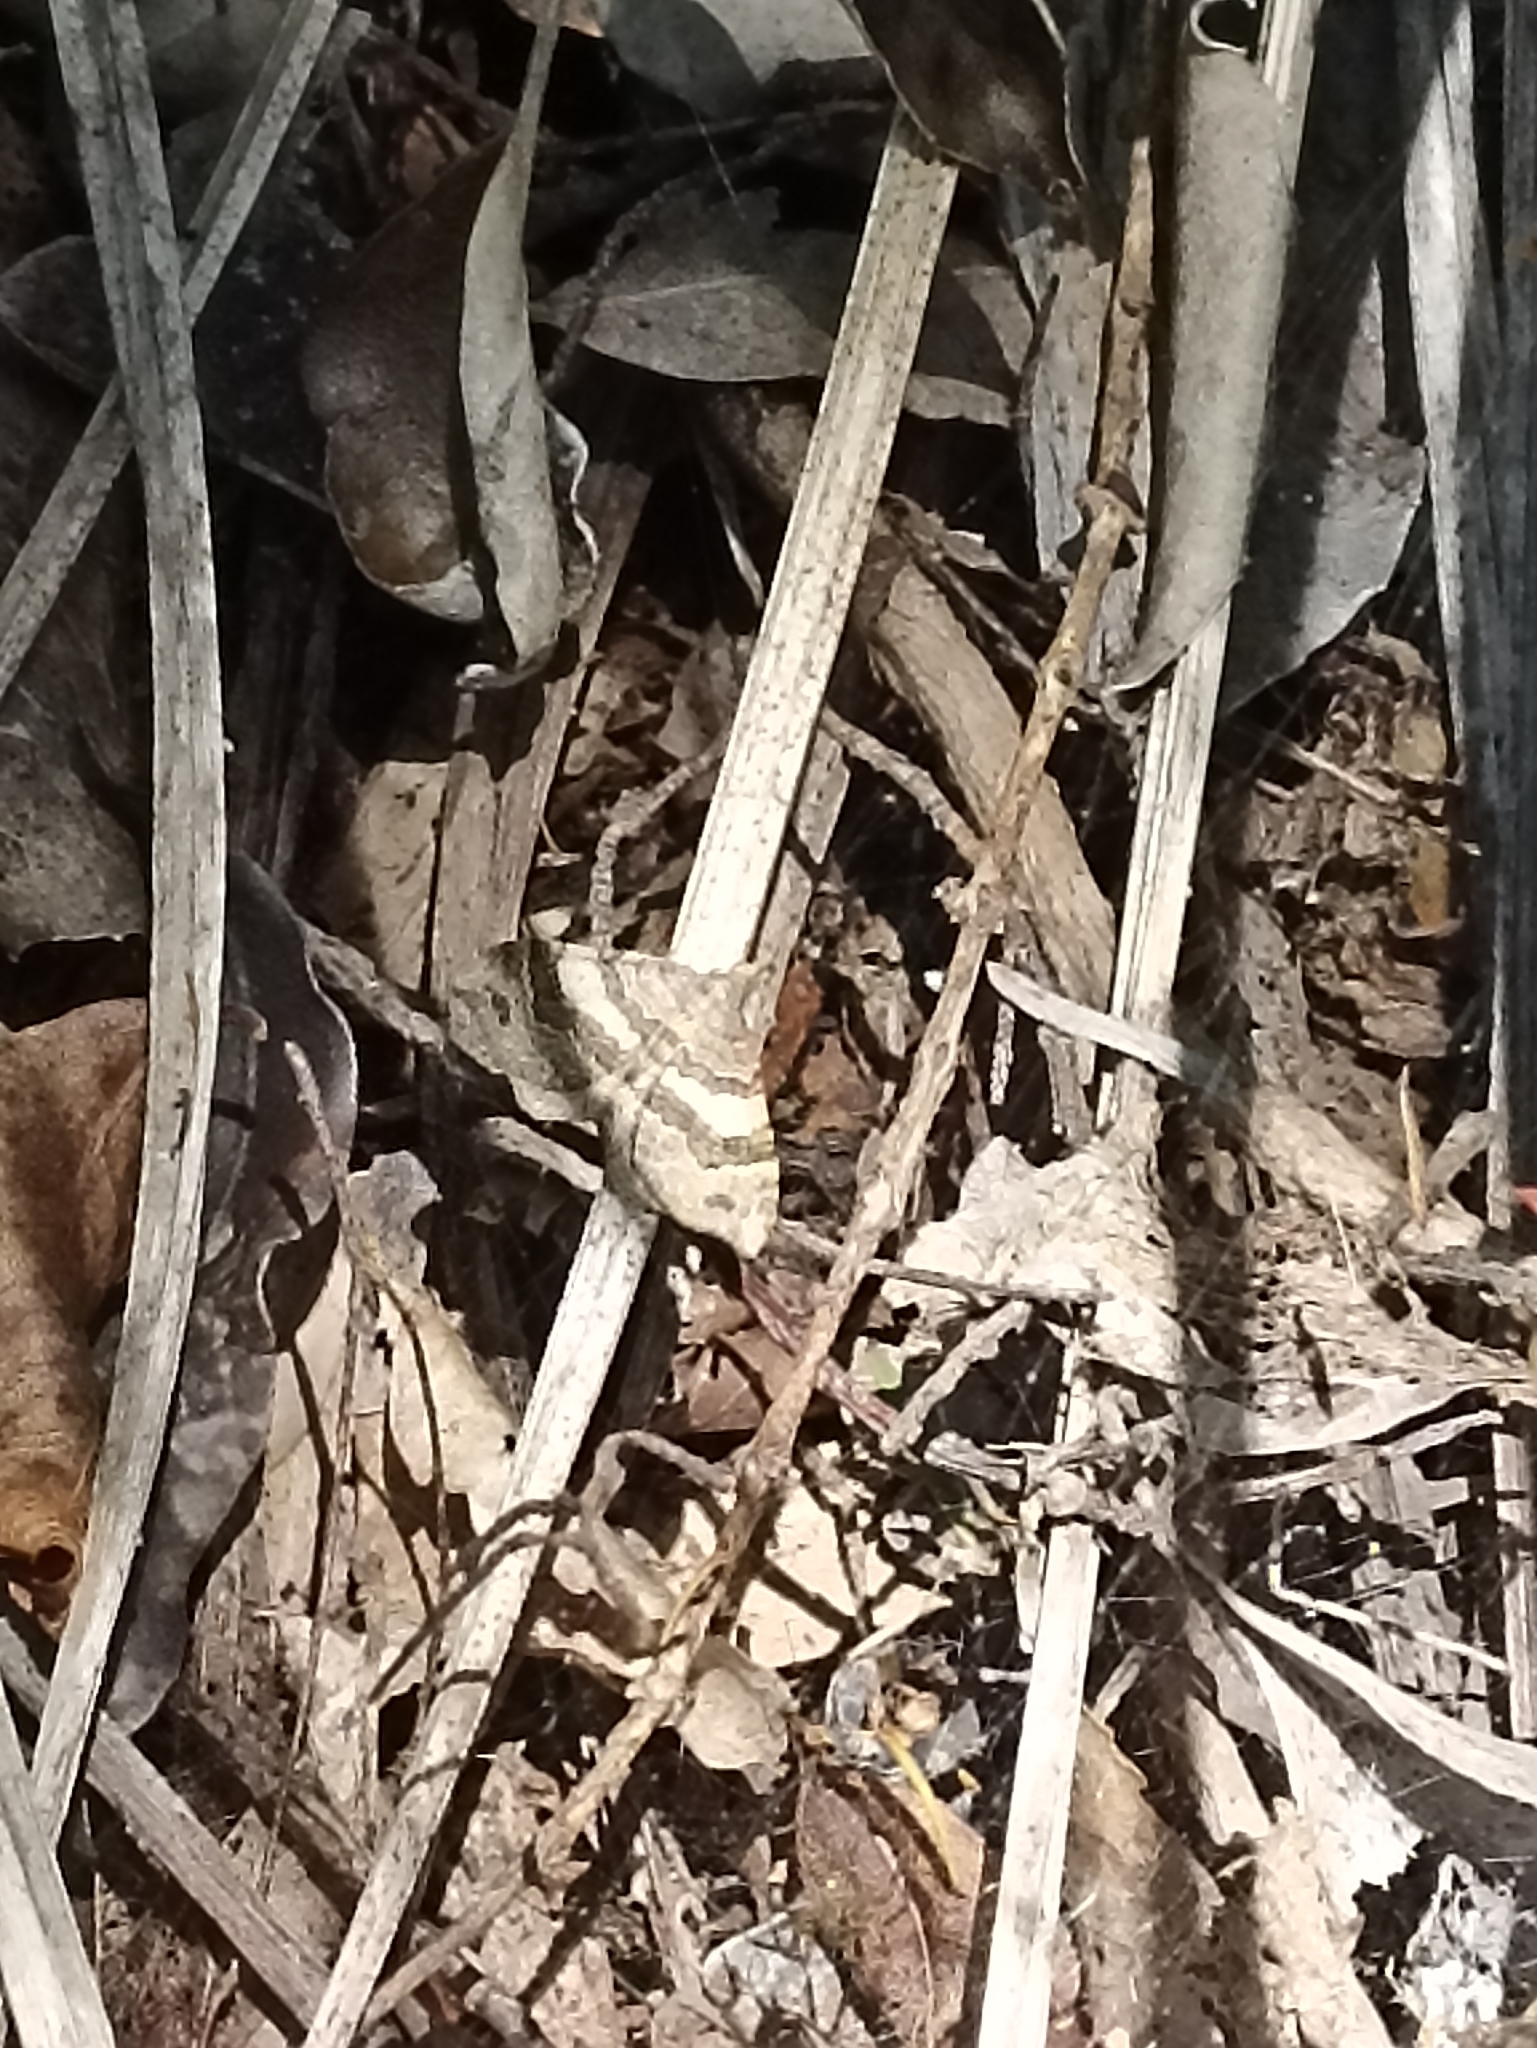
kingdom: Animalia
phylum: Arthropoda
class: Insecta
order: Lepidoptera
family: Geometridae
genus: Homodotis
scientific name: Homodotis megaspilata
